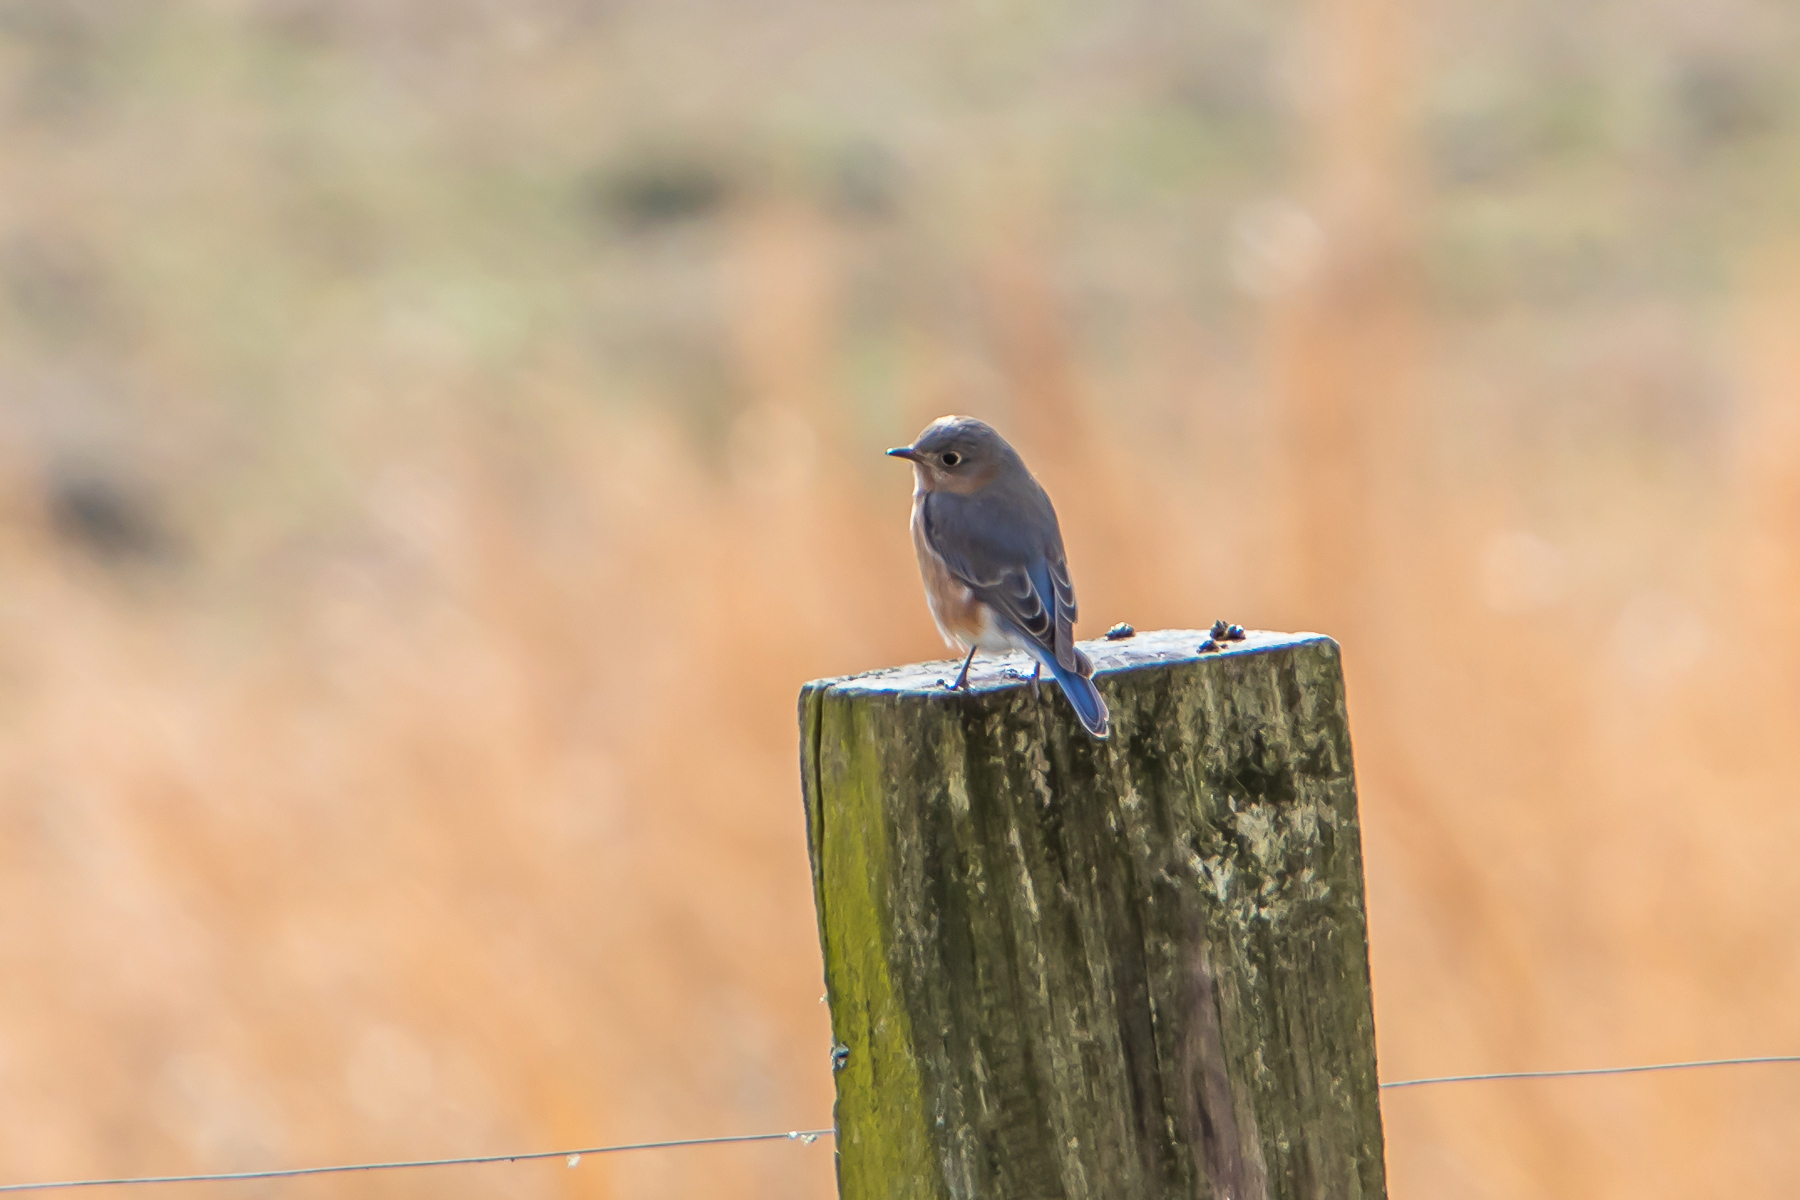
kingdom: Animalia
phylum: Chordata
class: Aves
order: Passeriformes
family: Turdidae
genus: Sialia
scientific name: Sialia sialis
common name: Eastern bluebird
